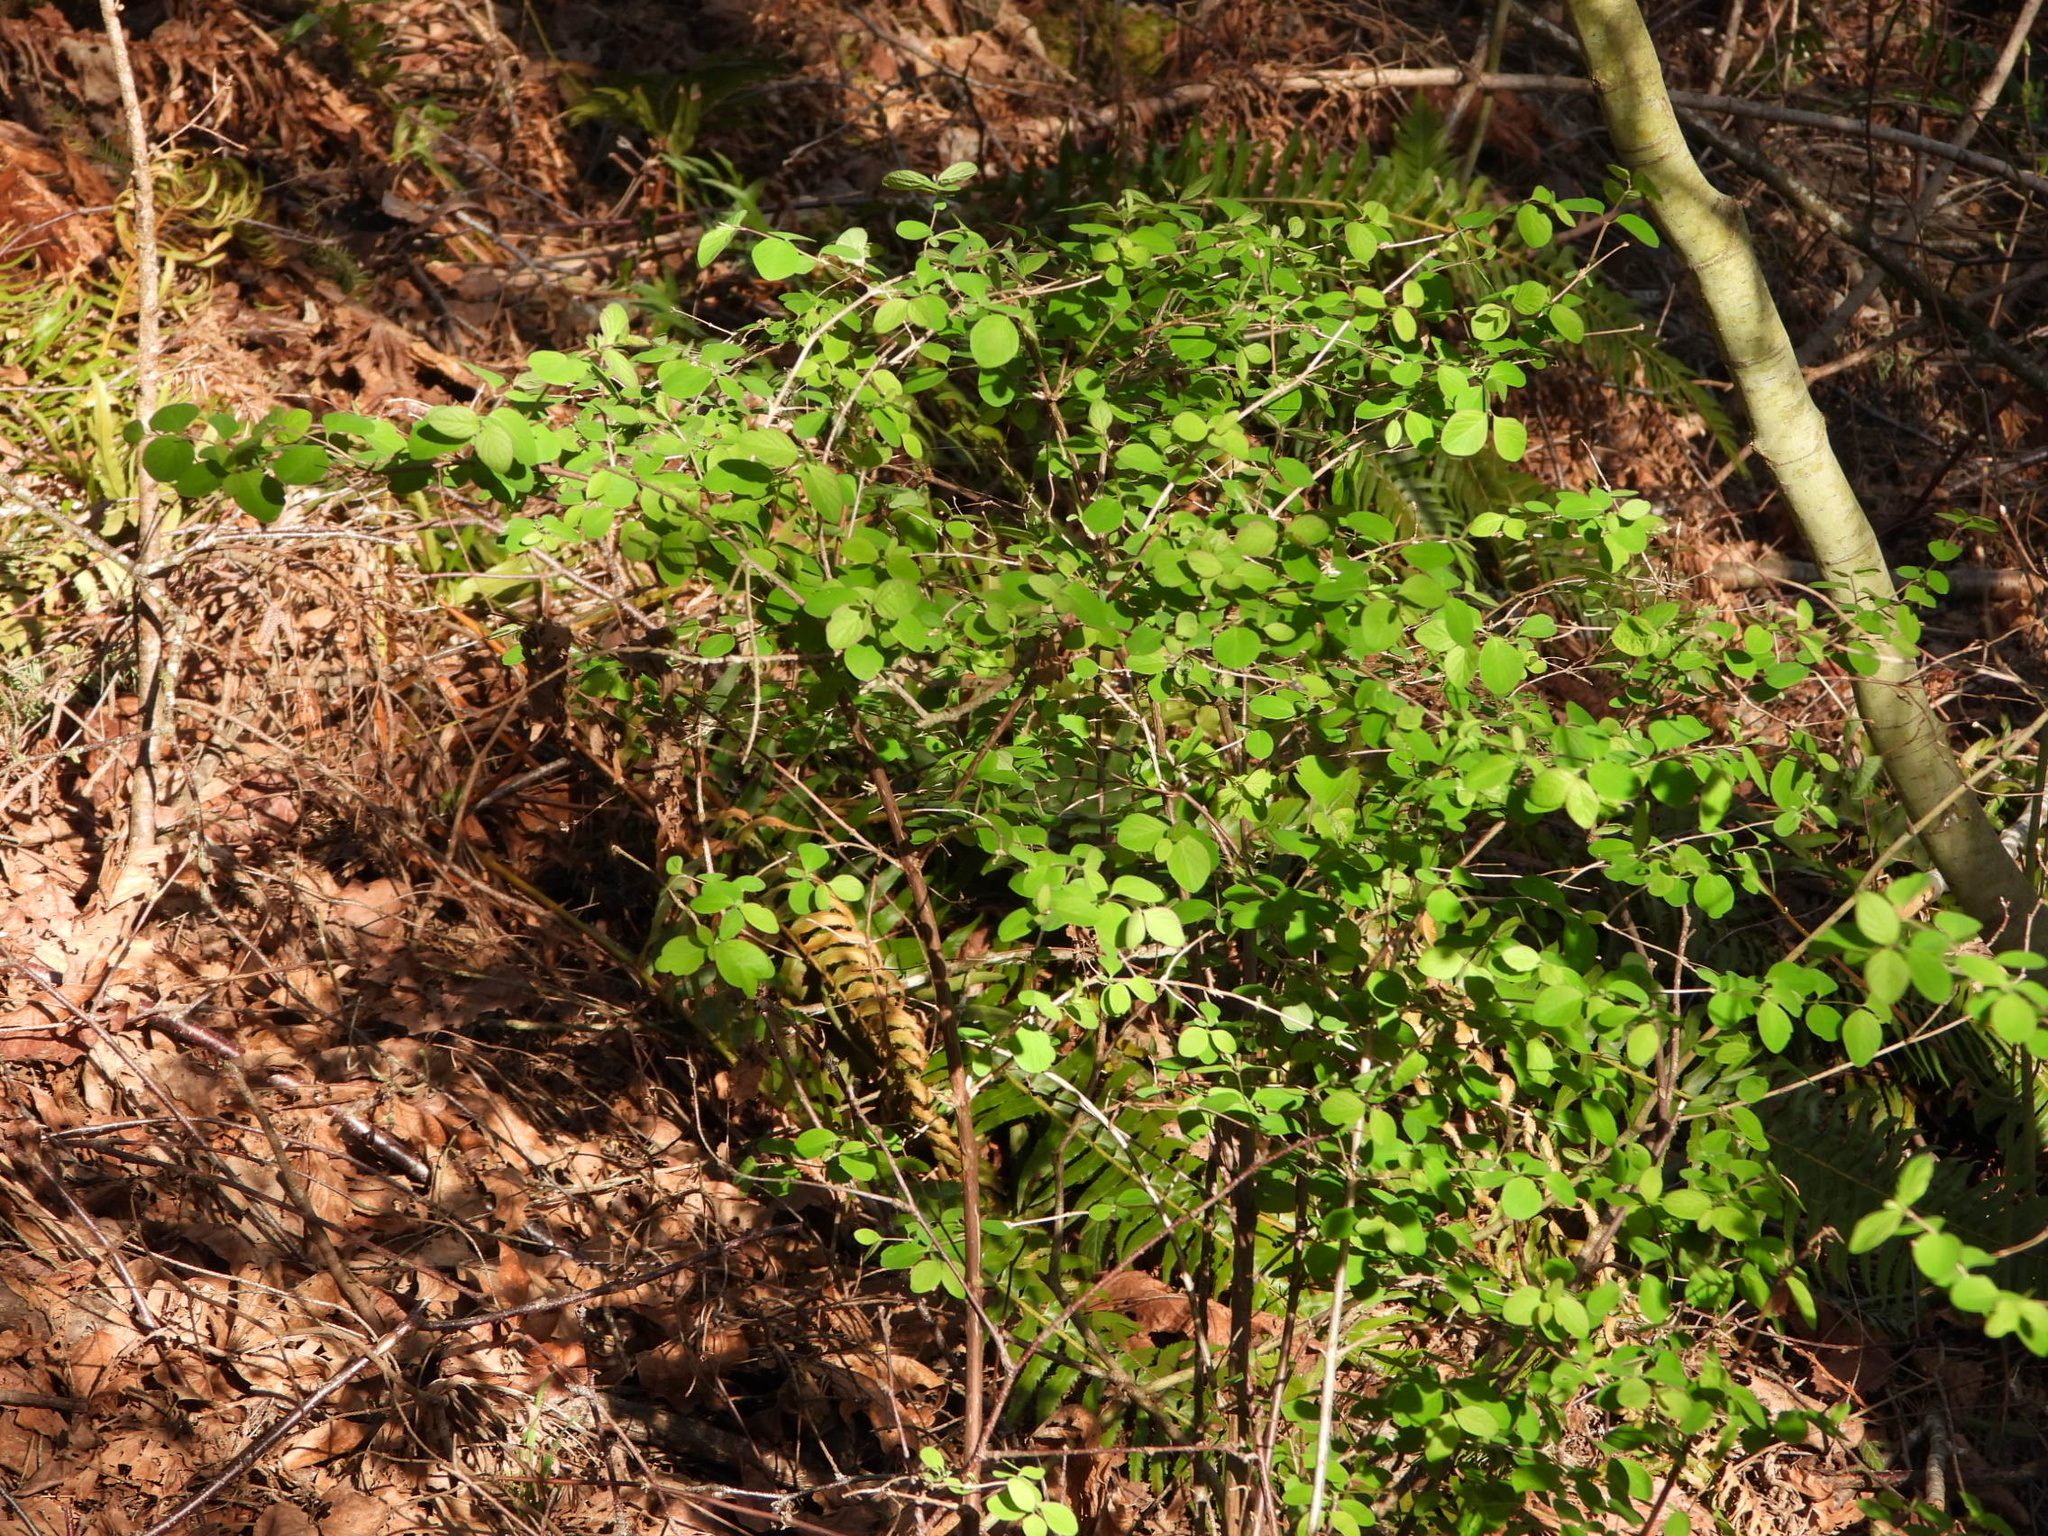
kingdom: Plantae
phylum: Tracheophyta
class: Magnoliopsida
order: Dipsacales
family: Caprifoliaceae
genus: Symphoricarpos
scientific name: Symphoricarpos albus
